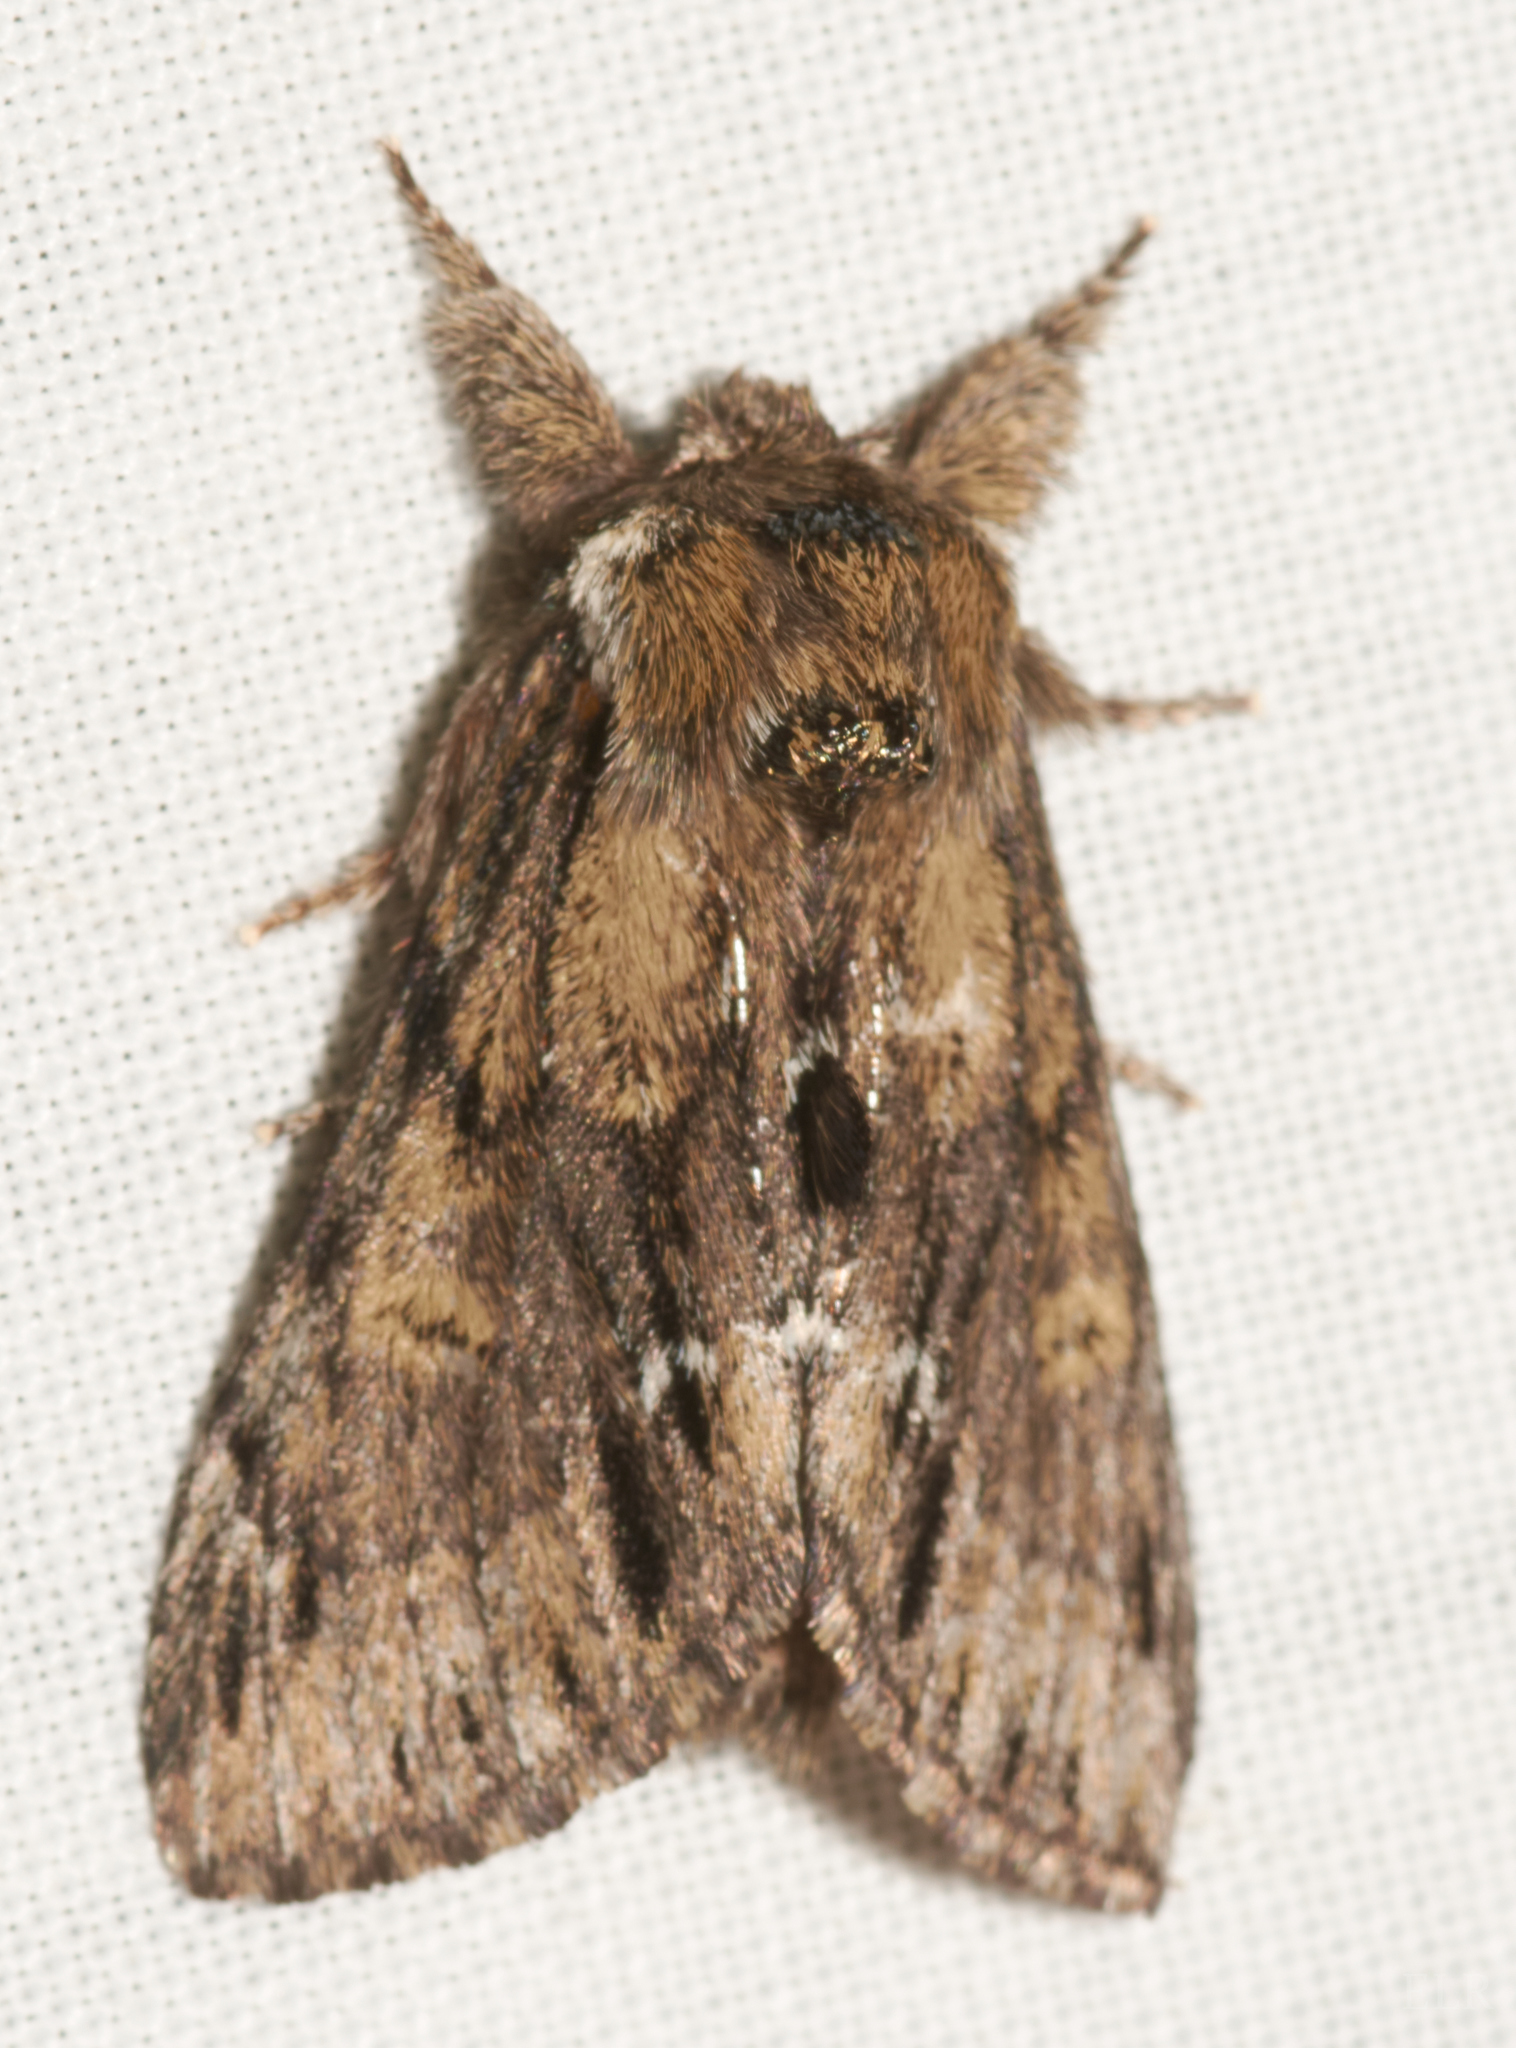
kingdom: Animalia
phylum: Arthropoda
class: Insecta
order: Lepidoptera
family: Notodontidae
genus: Paraeschra
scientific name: Paraeschra georgica
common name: Georgian prominent
